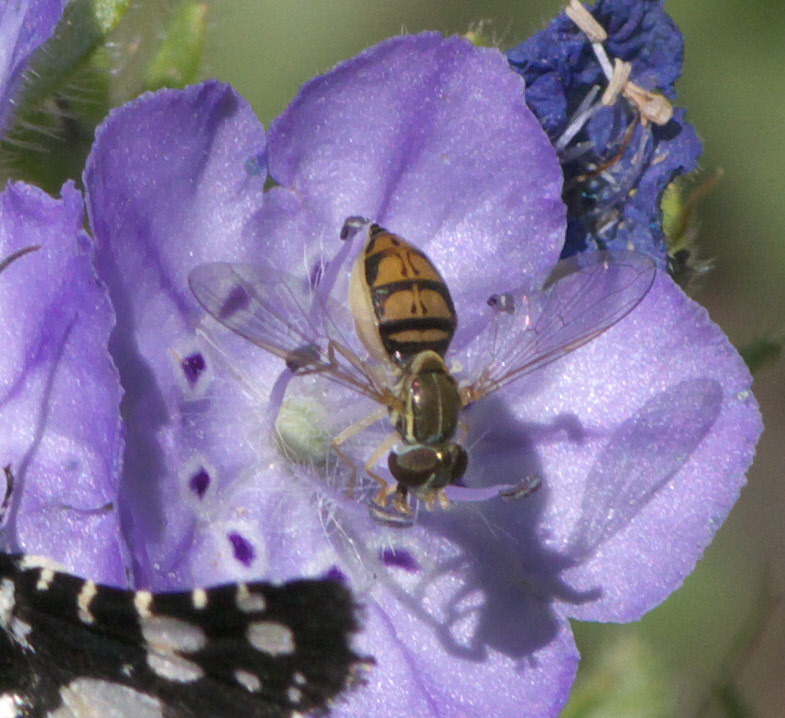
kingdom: Animalia
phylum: Arthropoda
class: Insecta
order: Diptera
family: Syrphidae
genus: Toxomerus
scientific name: Toxomerus marginatus
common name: Syrphid fly
